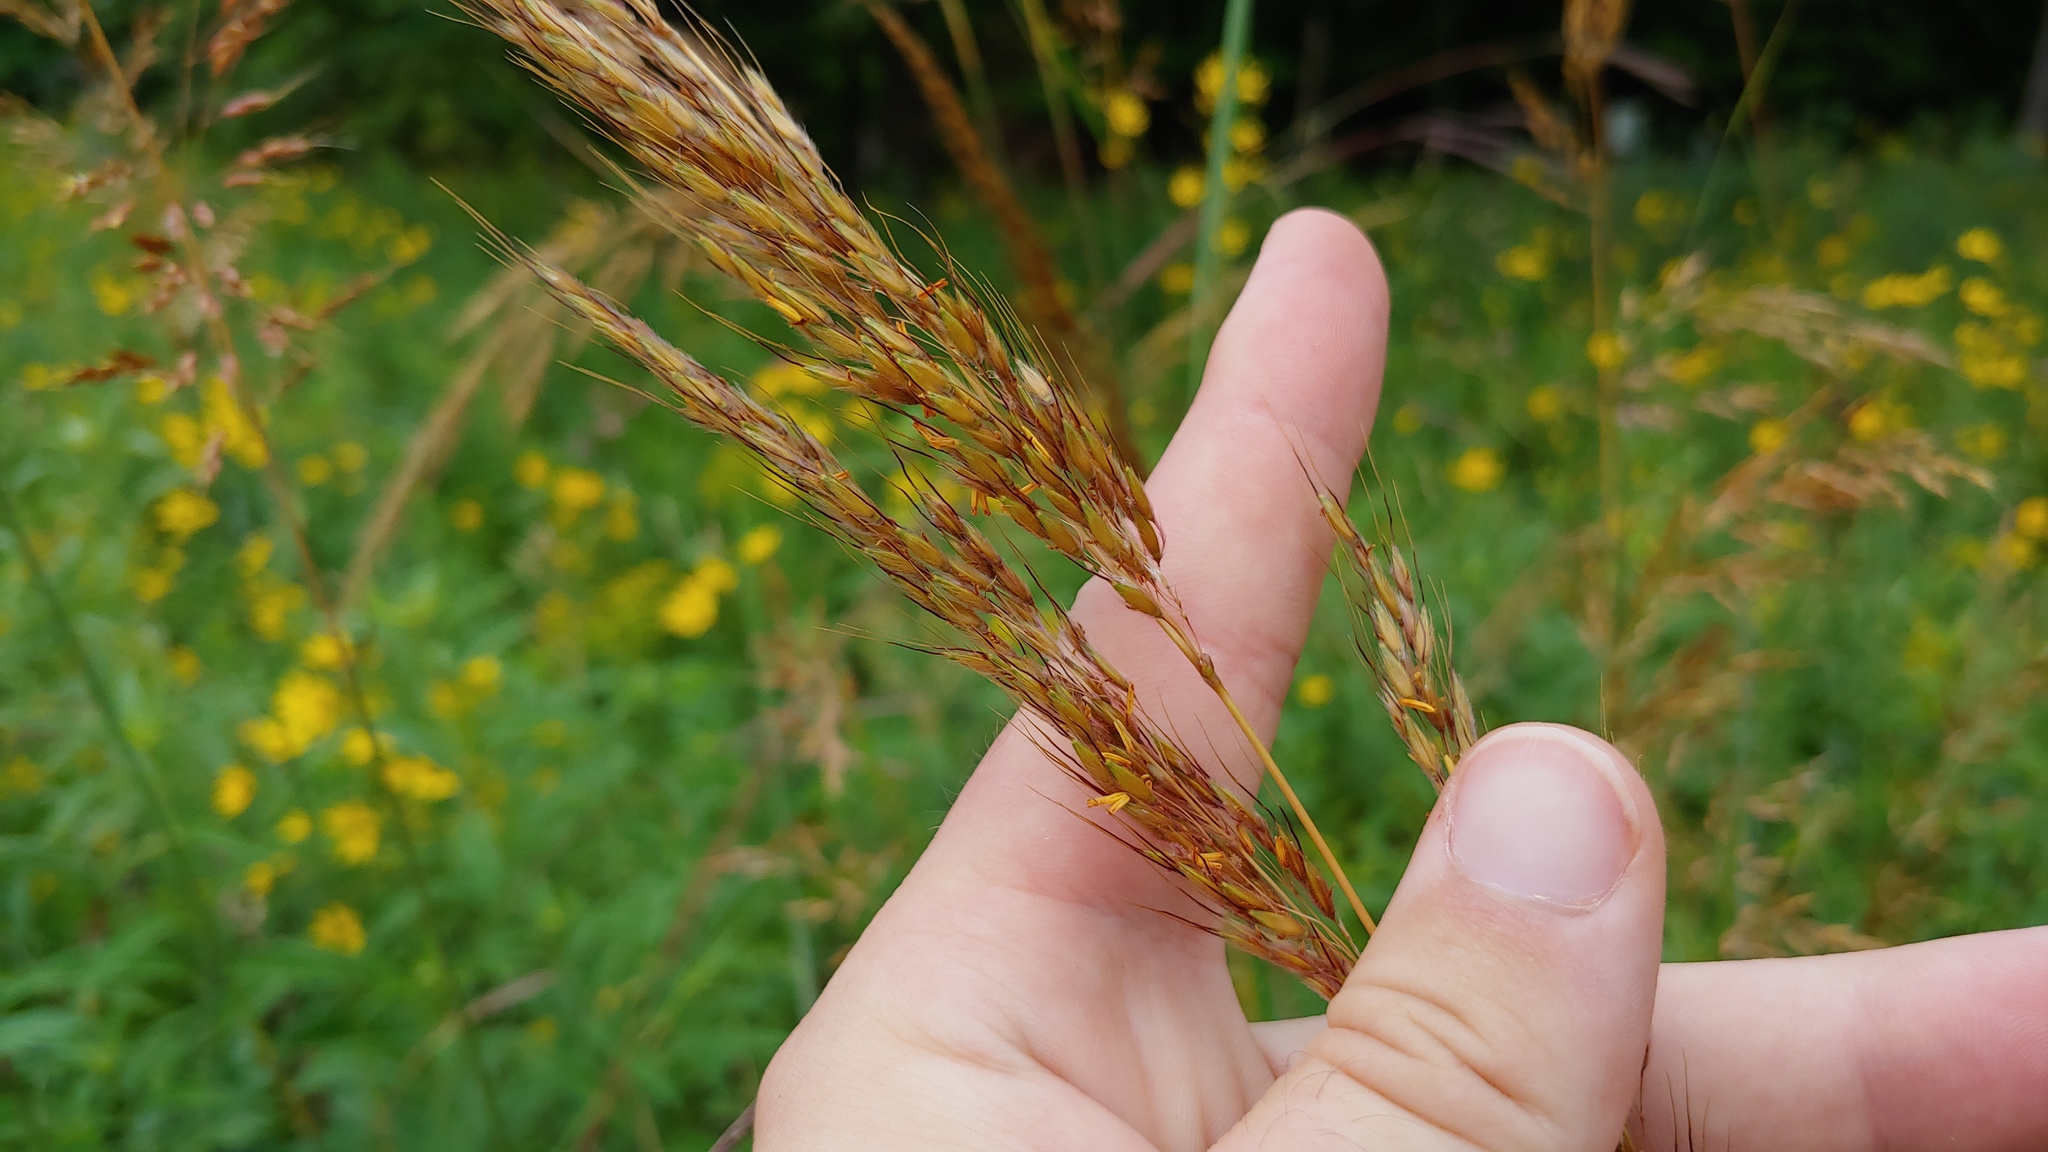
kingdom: Plantae
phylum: Tracheophyta
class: Liliopsida
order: Poales
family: Poaceae
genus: Sorghastrum
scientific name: Sorghastrum nutans
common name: Indian grass
